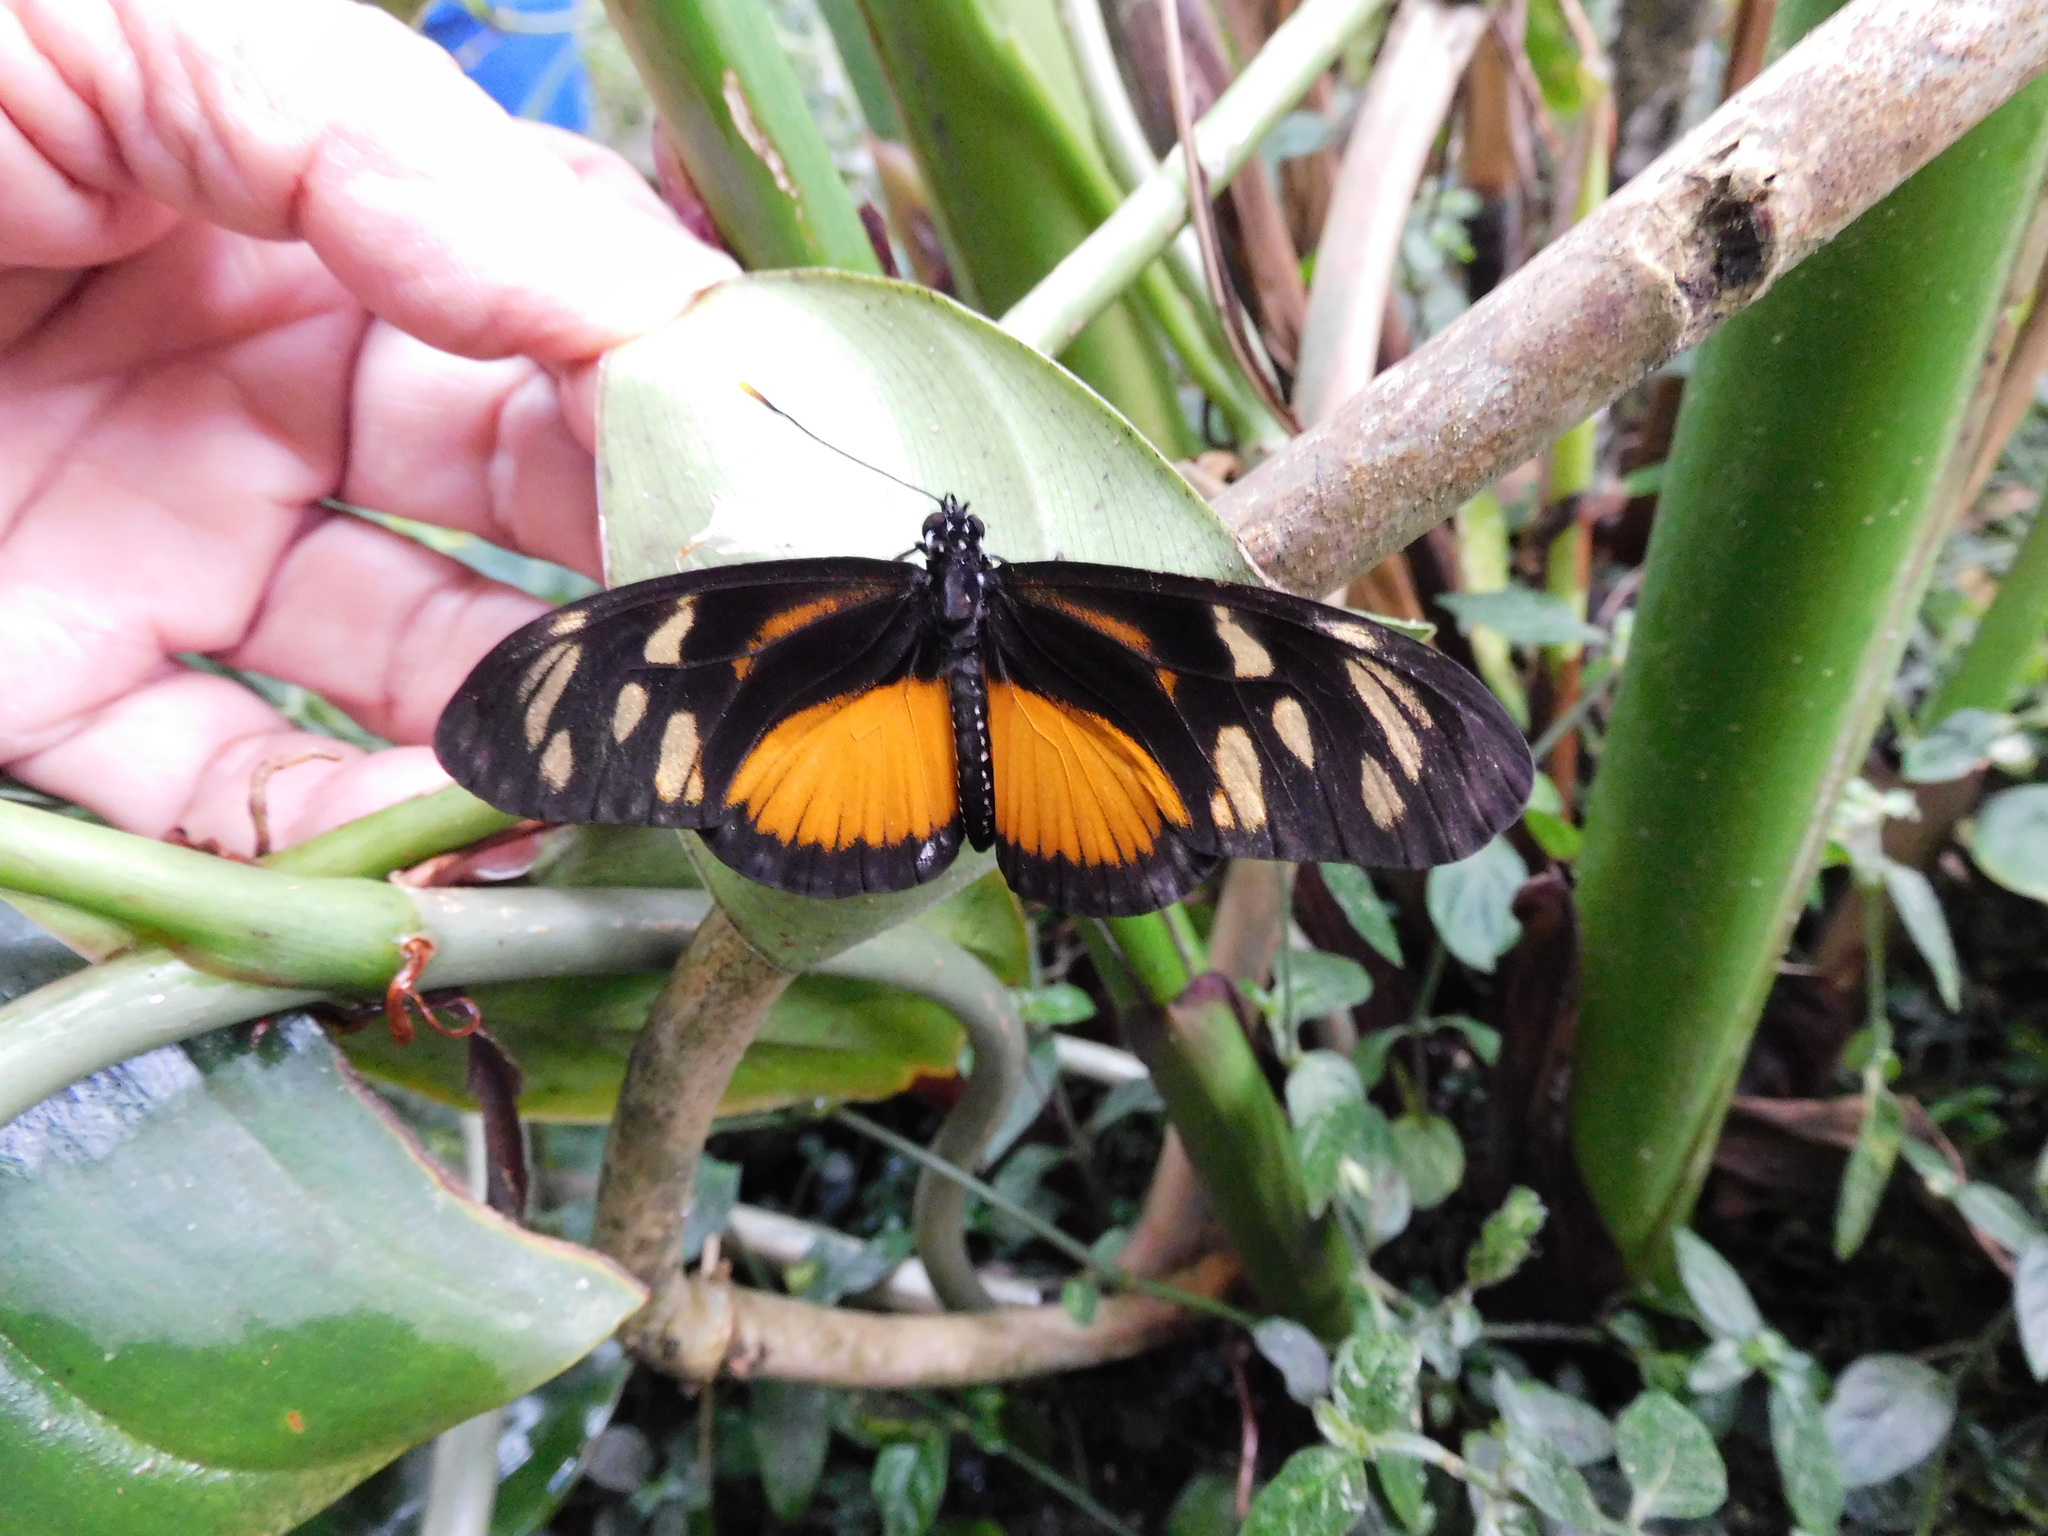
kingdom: Animalia
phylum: Arthropoda
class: Insecta
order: Lepidoptera
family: Nymphalidae
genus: Eueides
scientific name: Eueides procula
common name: Nonpassionate heliconian
